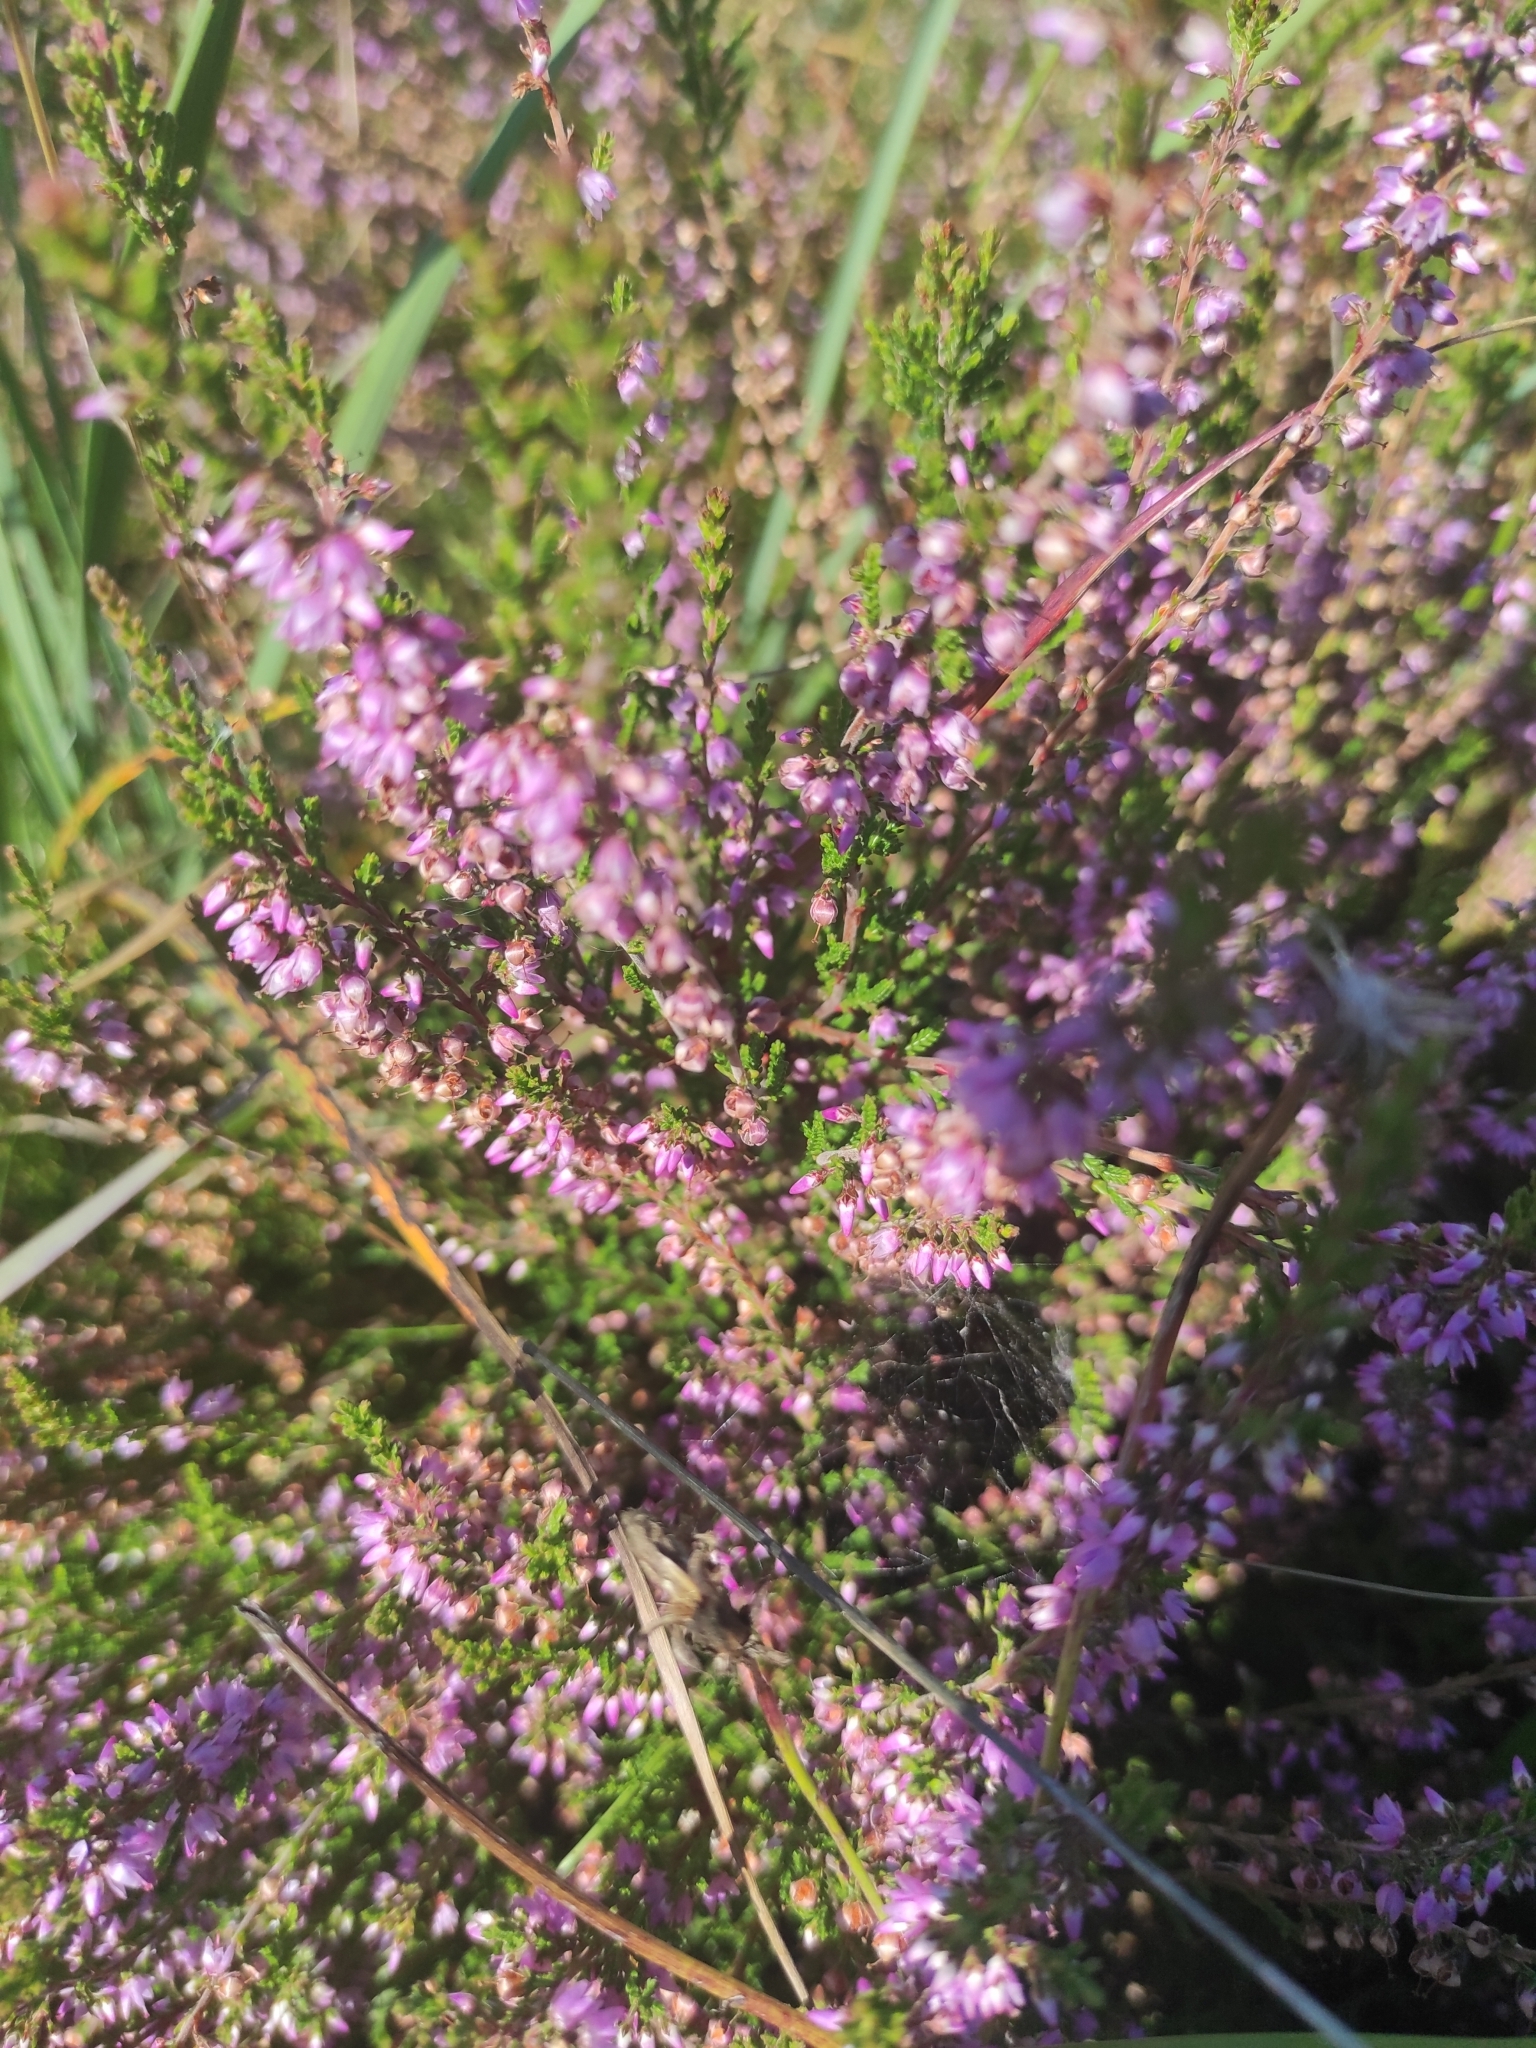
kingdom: Plantae
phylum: Tracheophyta
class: Magnoliopsida
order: Ericales
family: Ericaceae
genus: Calluna
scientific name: Calluna vulgaris
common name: Heather
